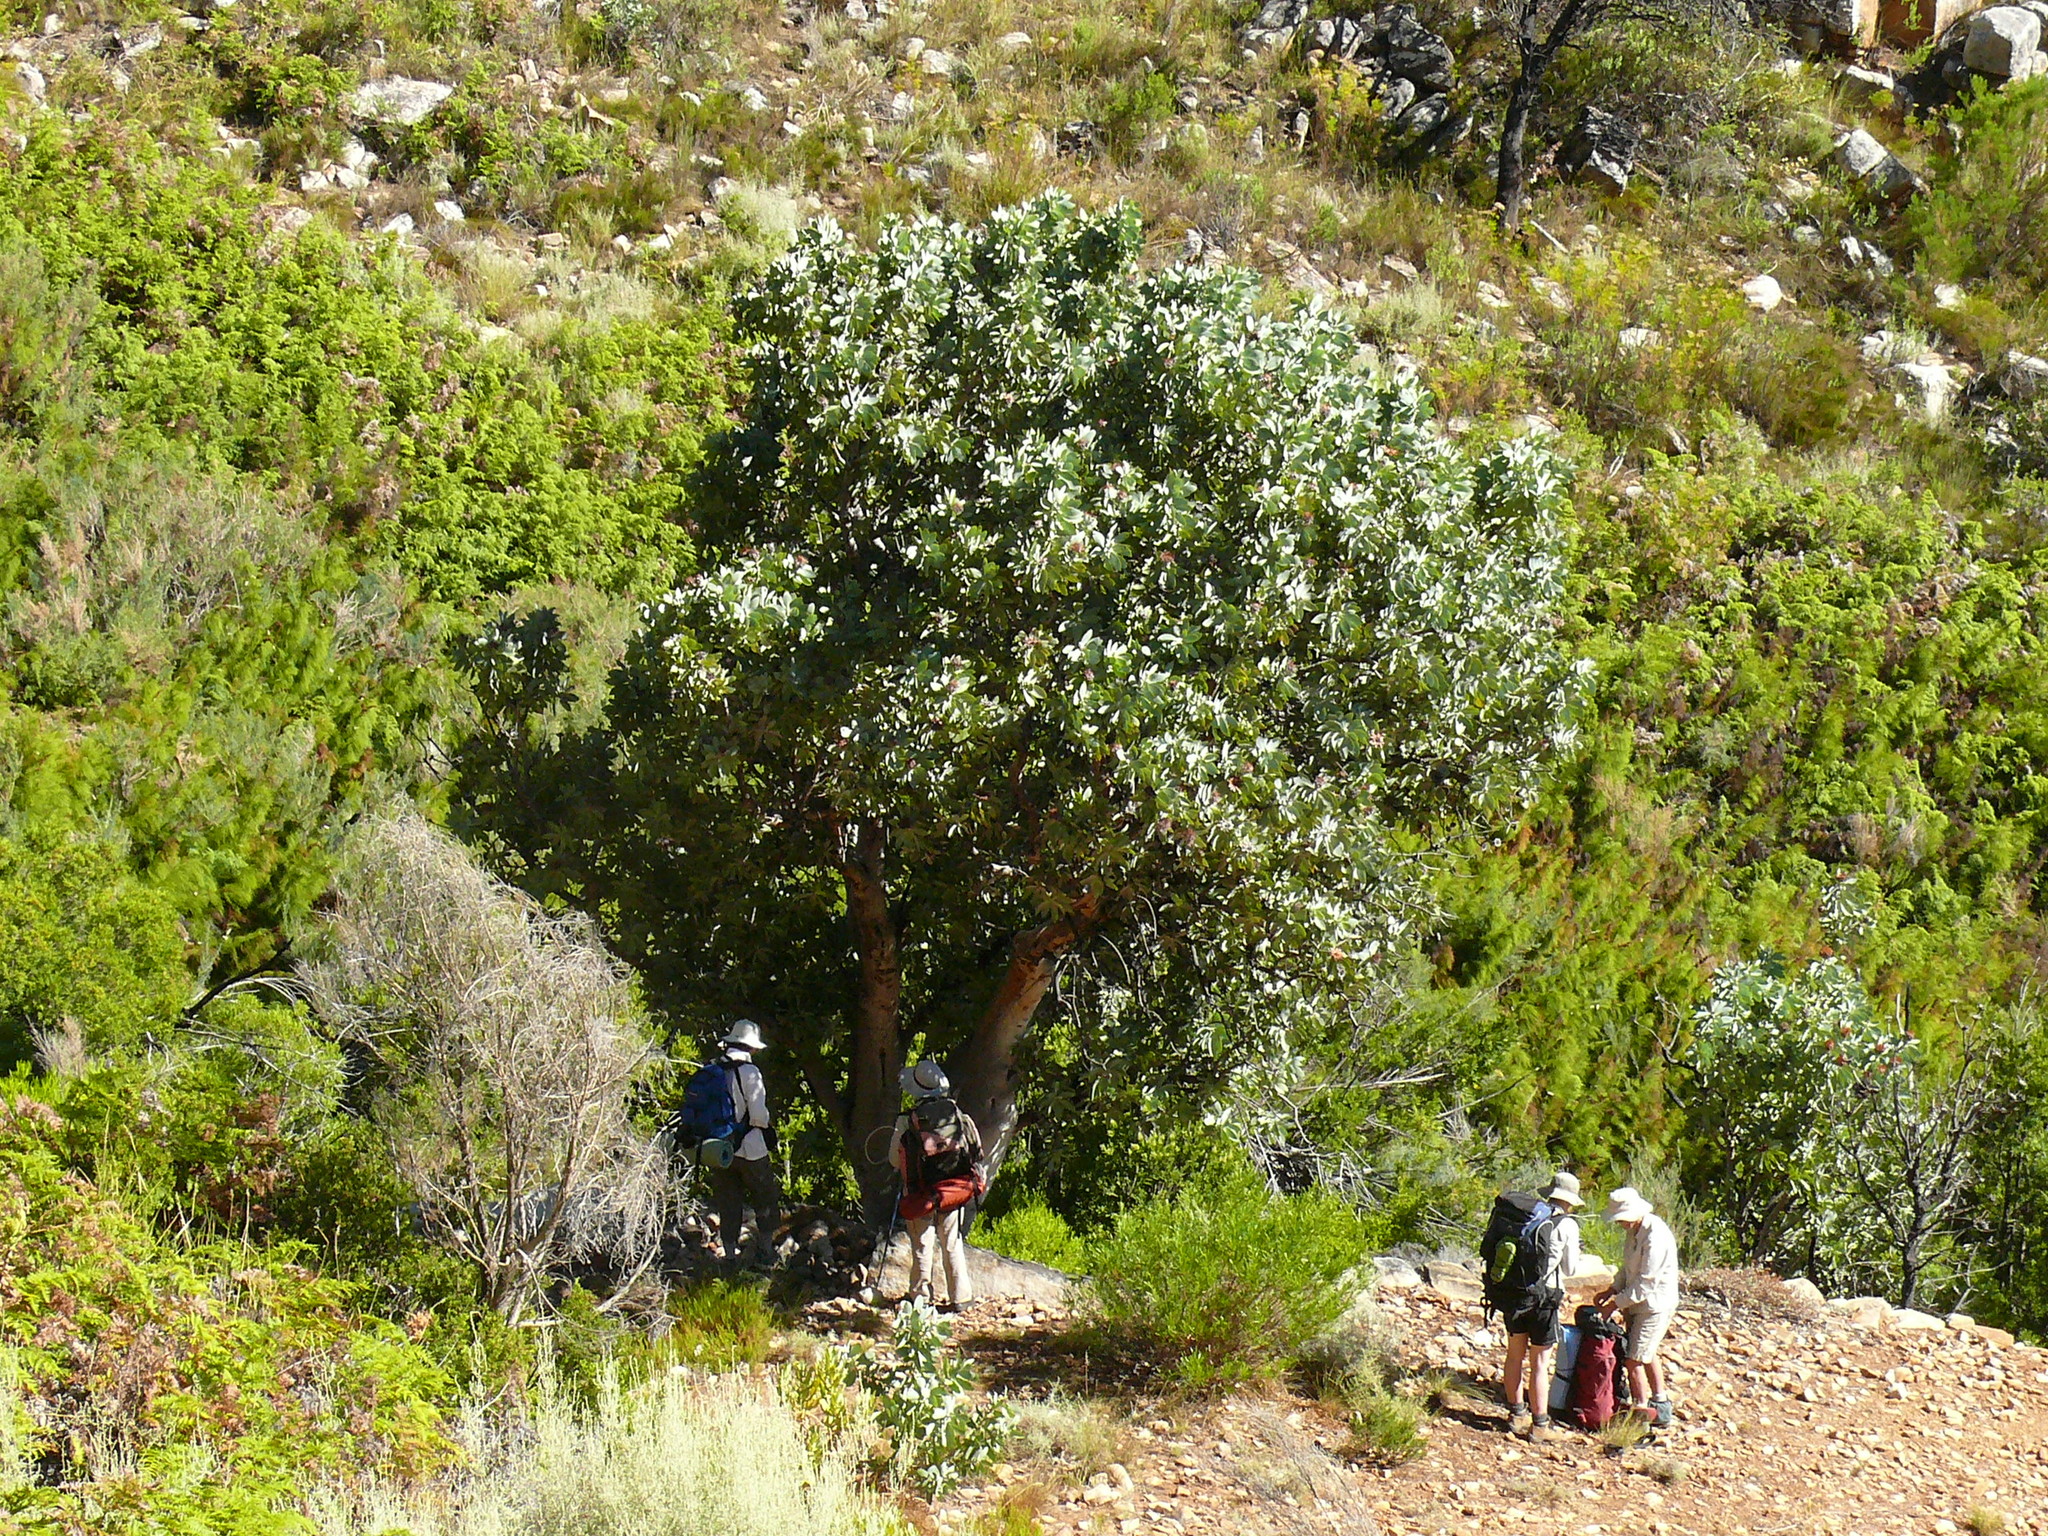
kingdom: Plantae
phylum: Tracheophyta
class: Magnoliopsida
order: Proteales
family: Proteaceae
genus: Protea
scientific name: Protea nitida
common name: Tree protea
